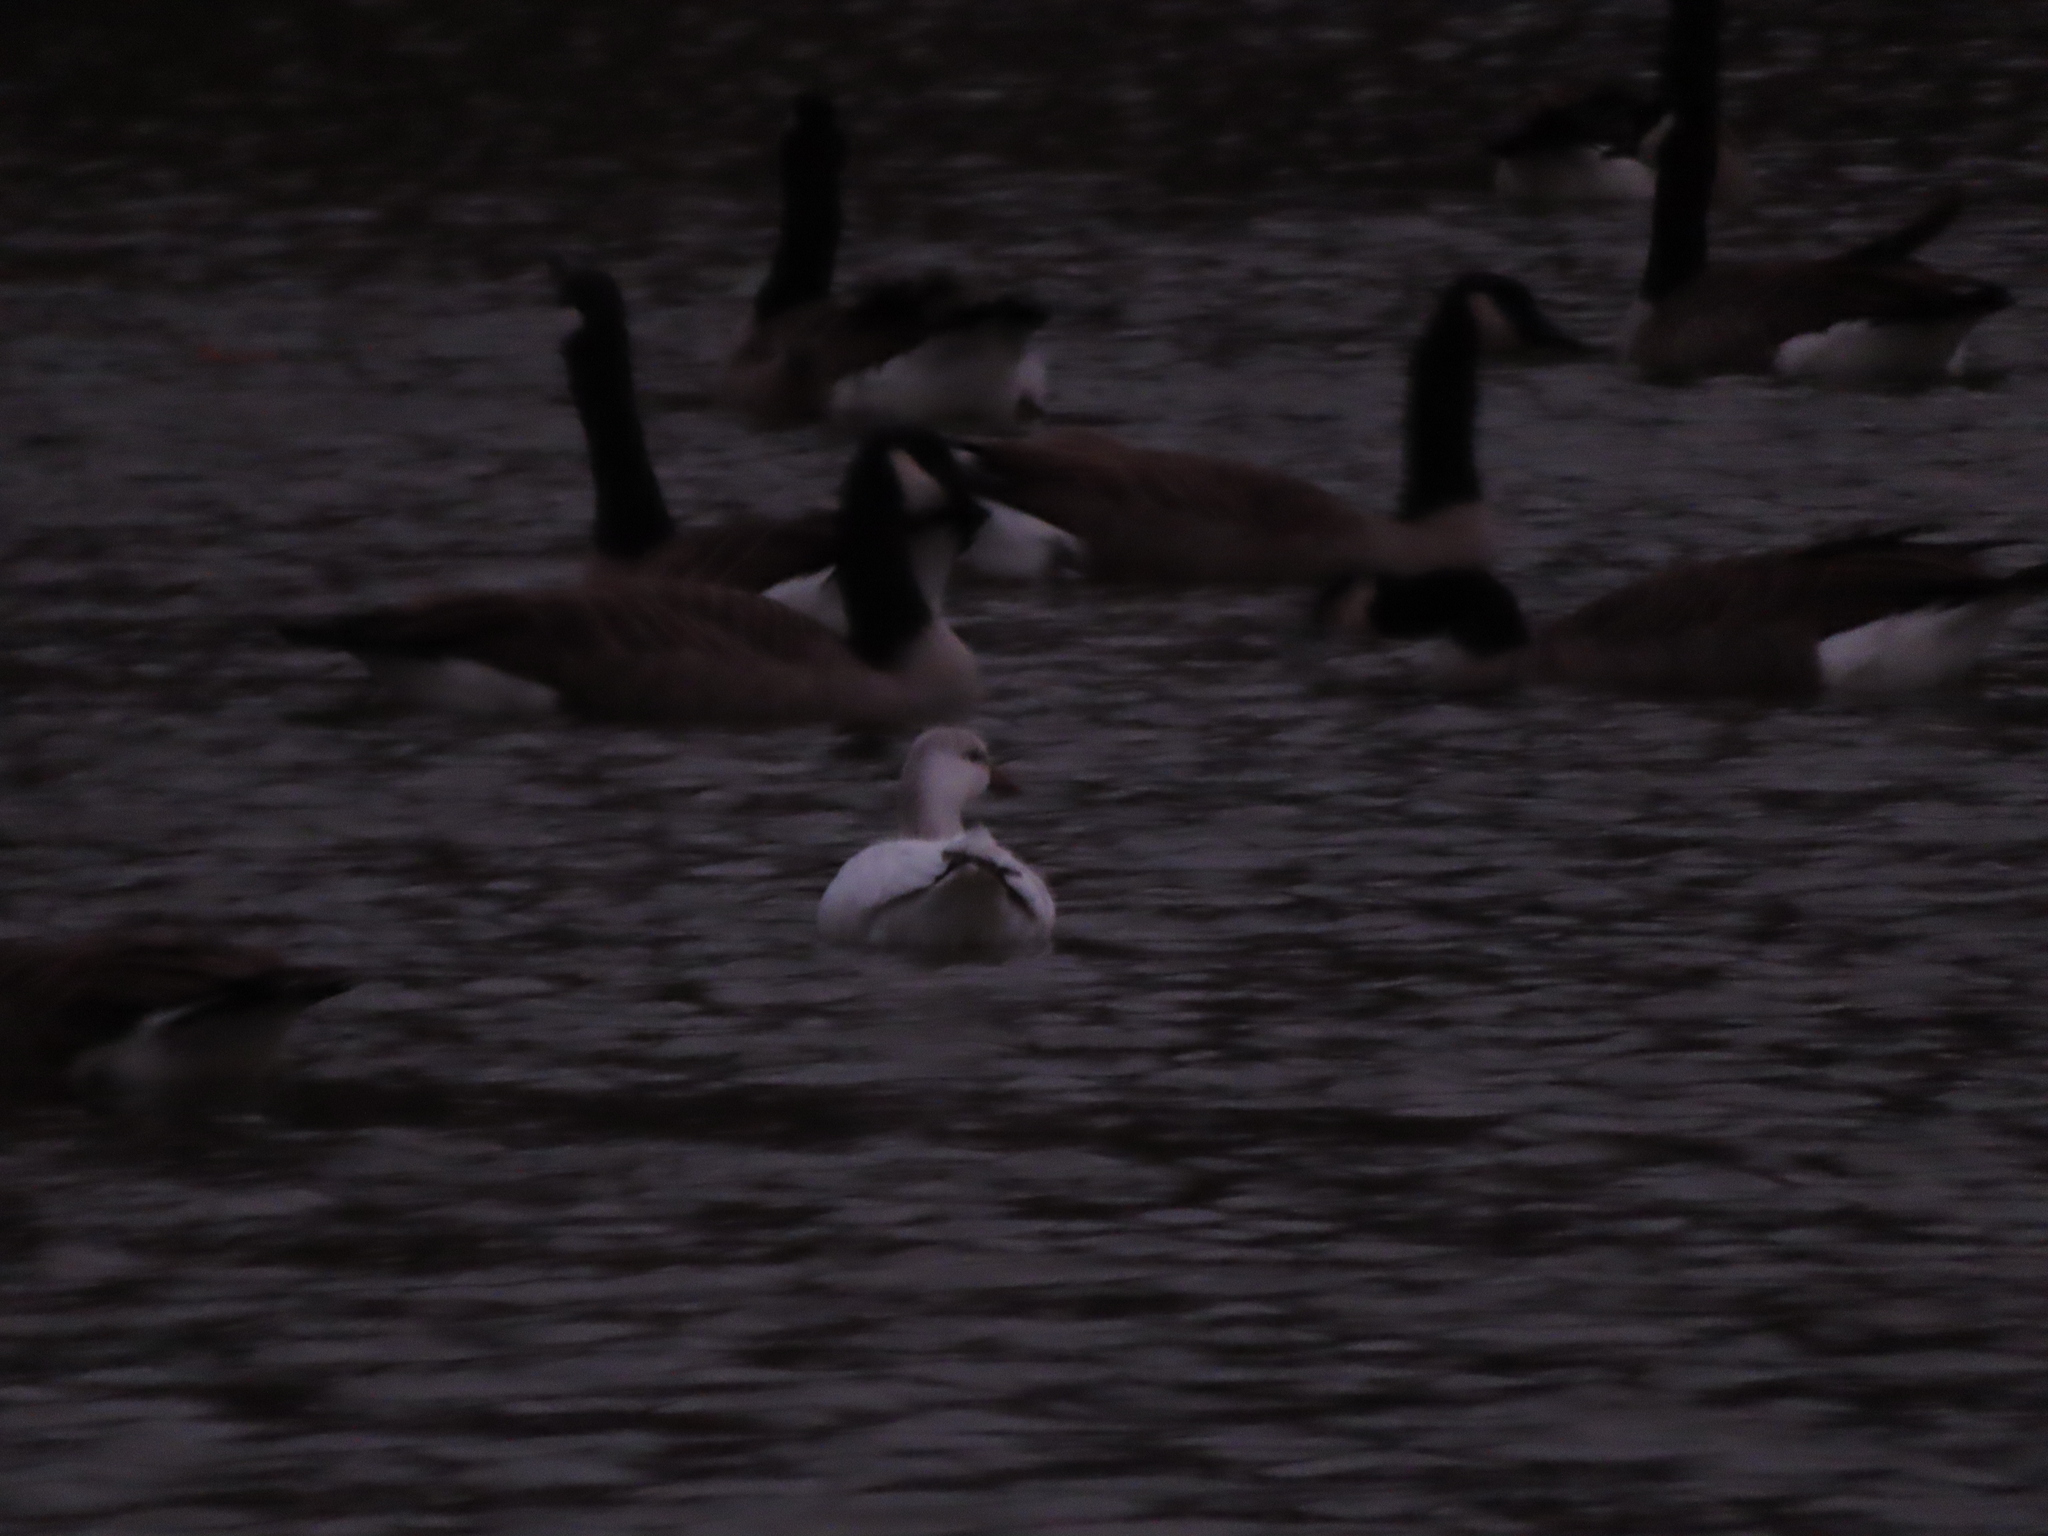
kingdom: Animalia
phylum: Chordata
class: Aves
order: Anseriformes
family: Anatidae
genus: Anser
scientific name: Anser rossii
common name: Ross's goose
